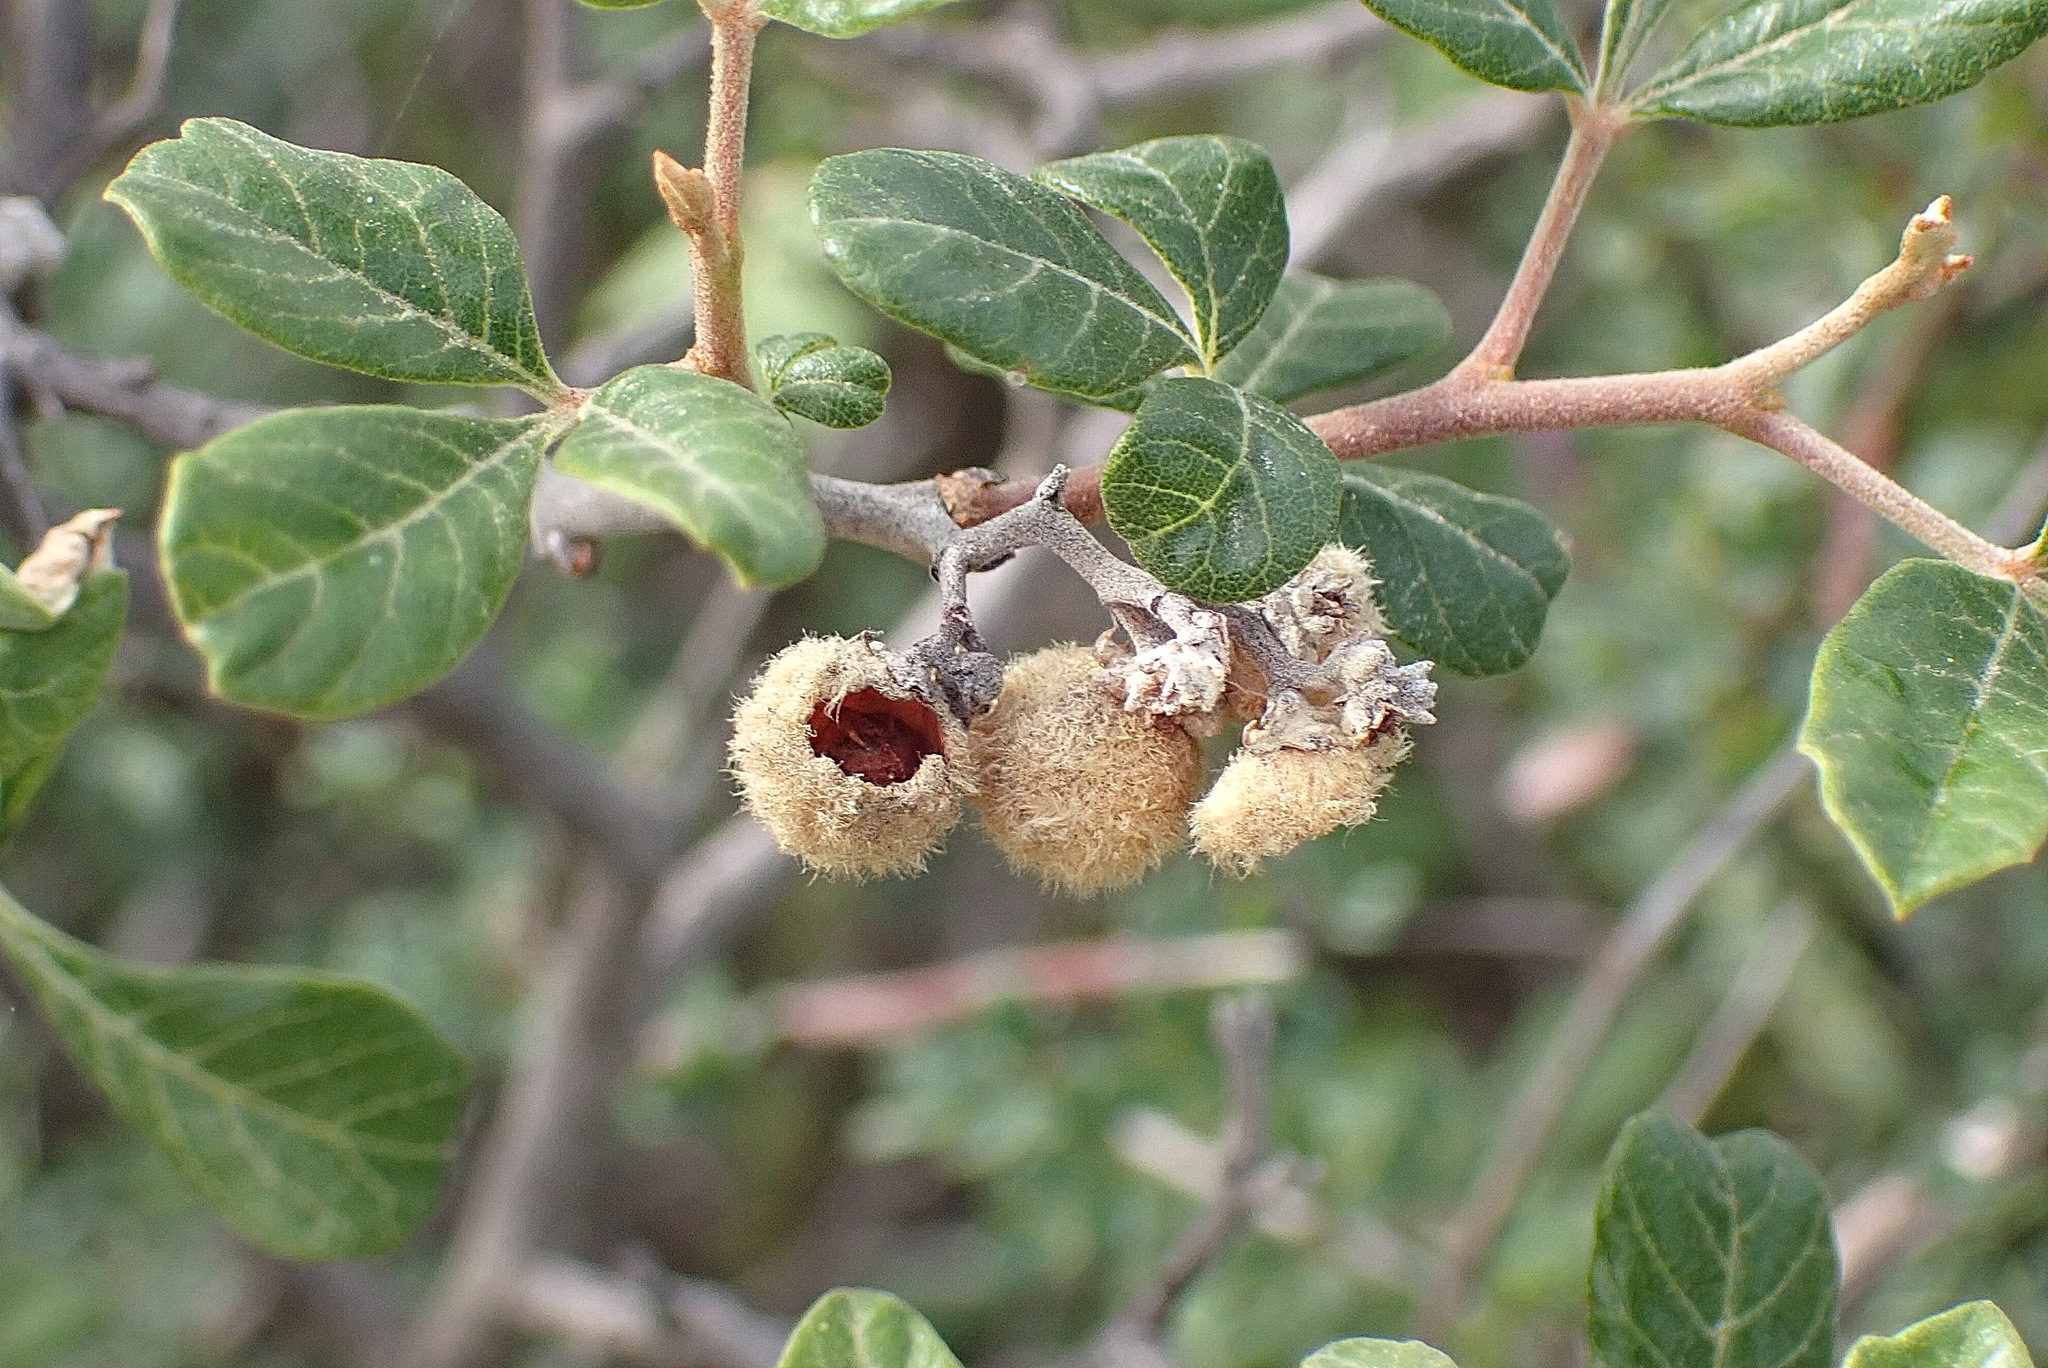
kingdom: Plantae
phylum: Tracheophyta
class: Magnoliopsida
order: Sapindales
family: Anacardiaceae
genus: Searsia
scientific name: Searsia incisa
